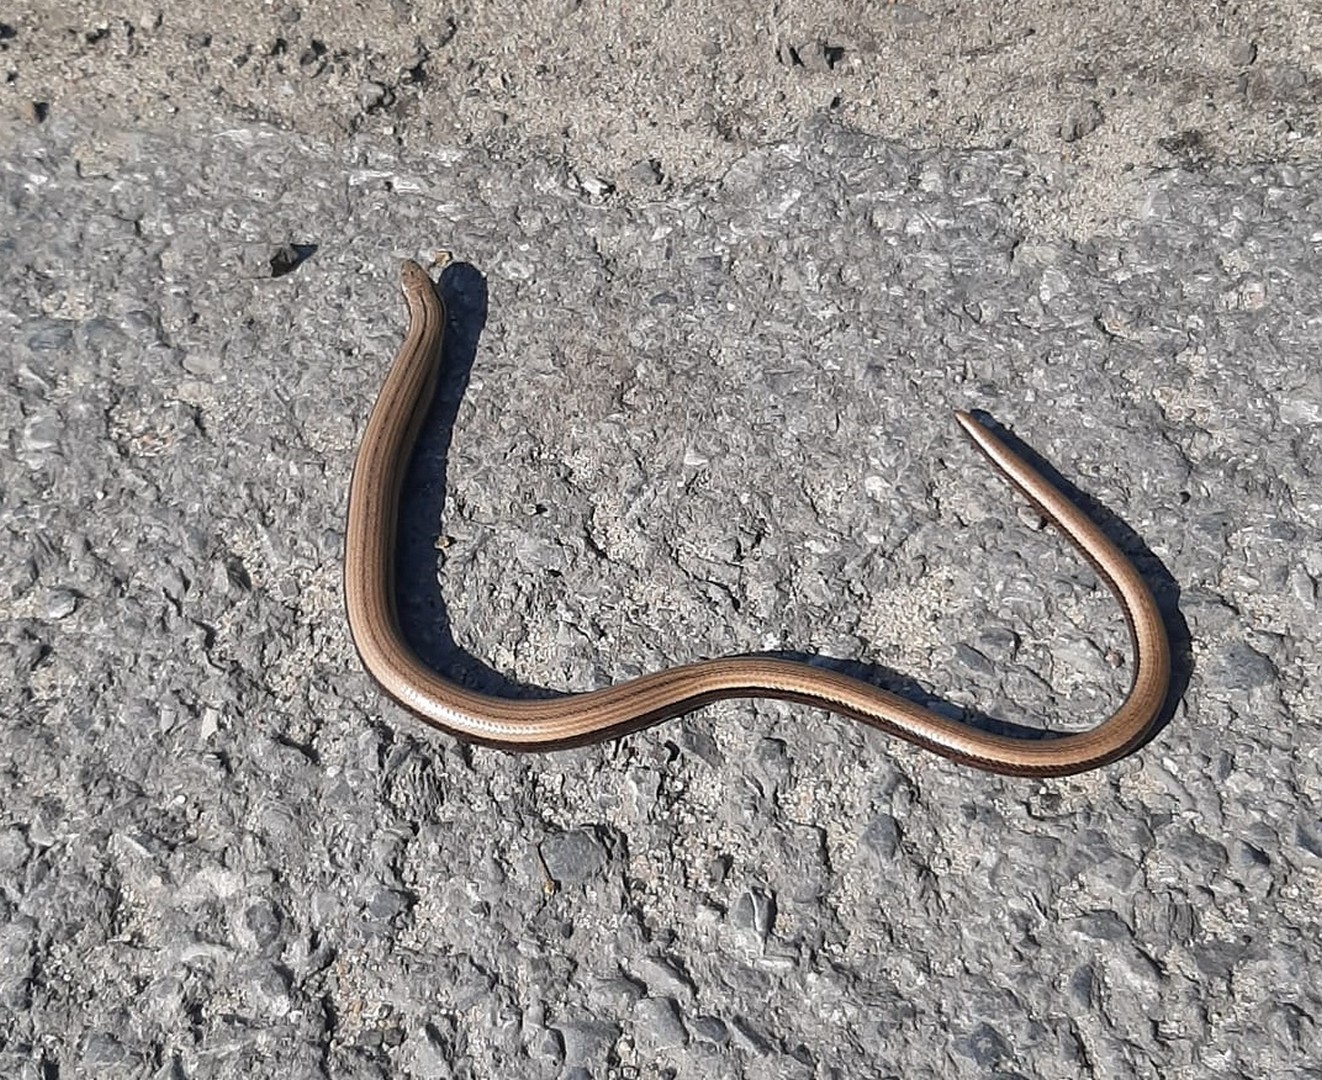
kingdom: Animalia
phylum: Chordata
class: Squamata
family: Anguidae
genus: Anguis
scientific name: Anguis colchica
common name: Slow worm
